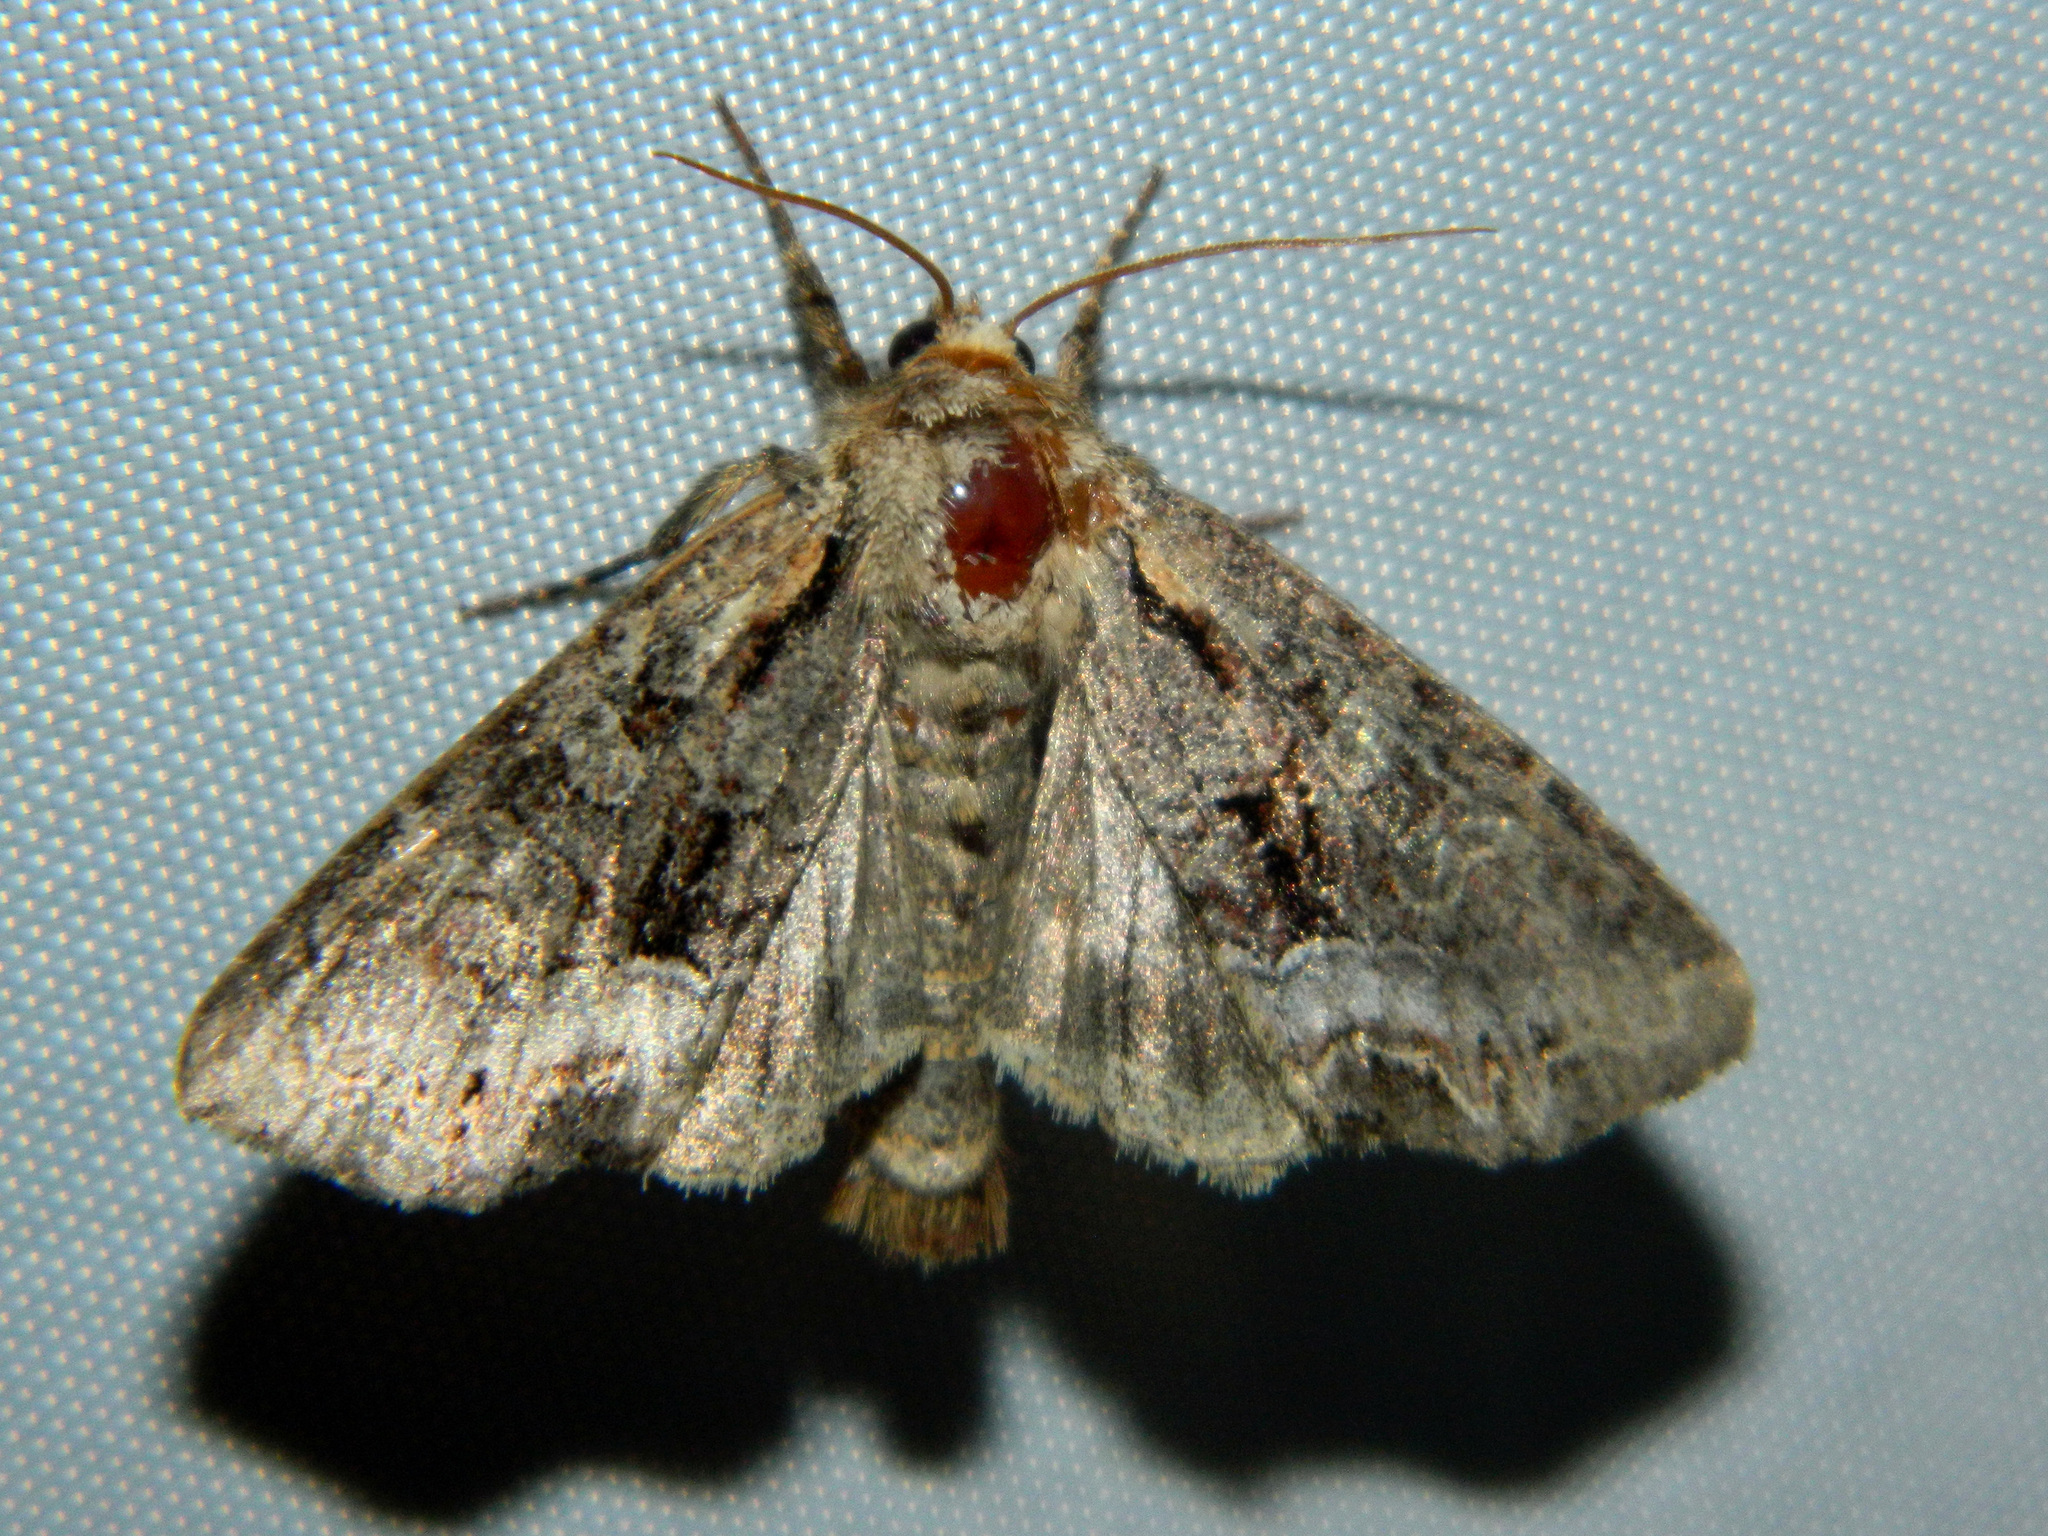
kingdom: Animalia
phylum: Arthropoda
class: Insecta
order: Lepidoptera
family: Noctuidae
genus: Lacanobia
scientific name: Lacanobia grandis
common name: Grand arches moth
